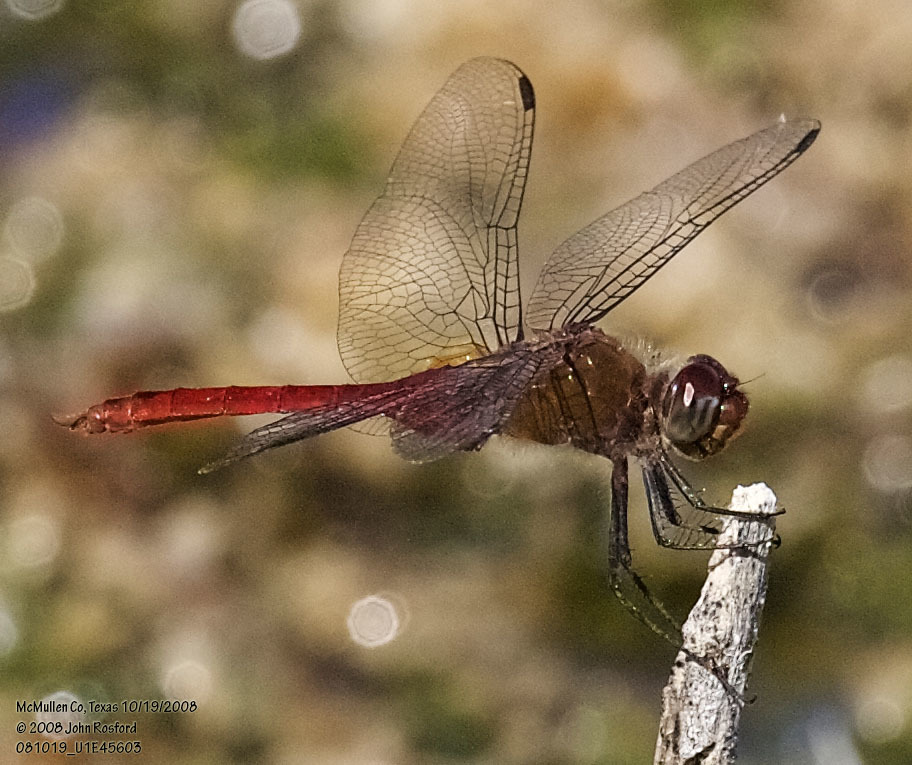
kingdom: Animalia
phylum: Arthropoda
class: Insecta
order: Odonata
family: Libellulidae
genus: Brachymesia
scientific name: Brachymesia furcata
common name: Red-taled pennant
